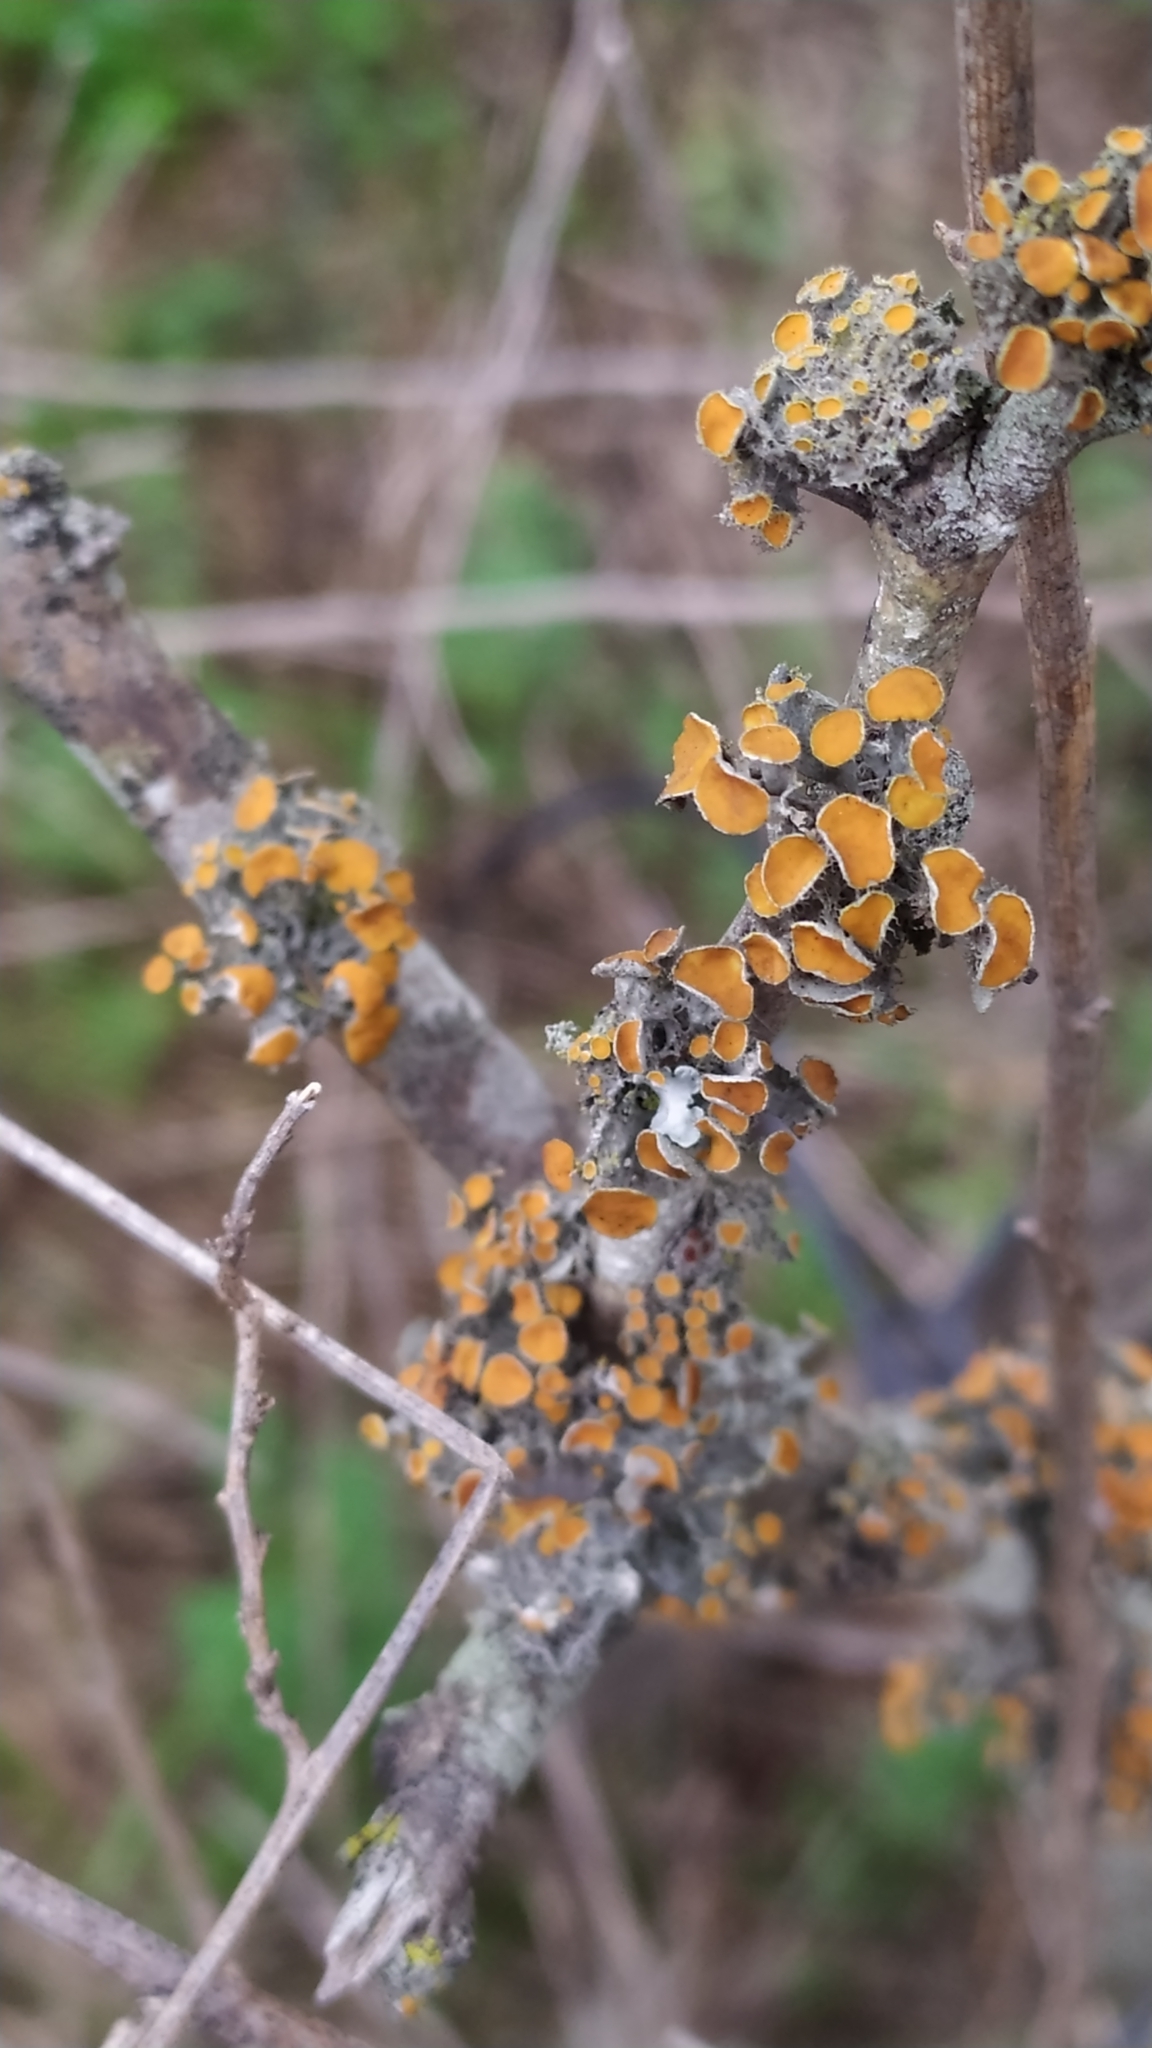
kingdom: Fungi
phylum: Ascomycota
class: Lecanoromycetes
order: Teloschistales
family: Teloschistaceae
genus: Niorma
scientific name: Niorma chrysophthalma
